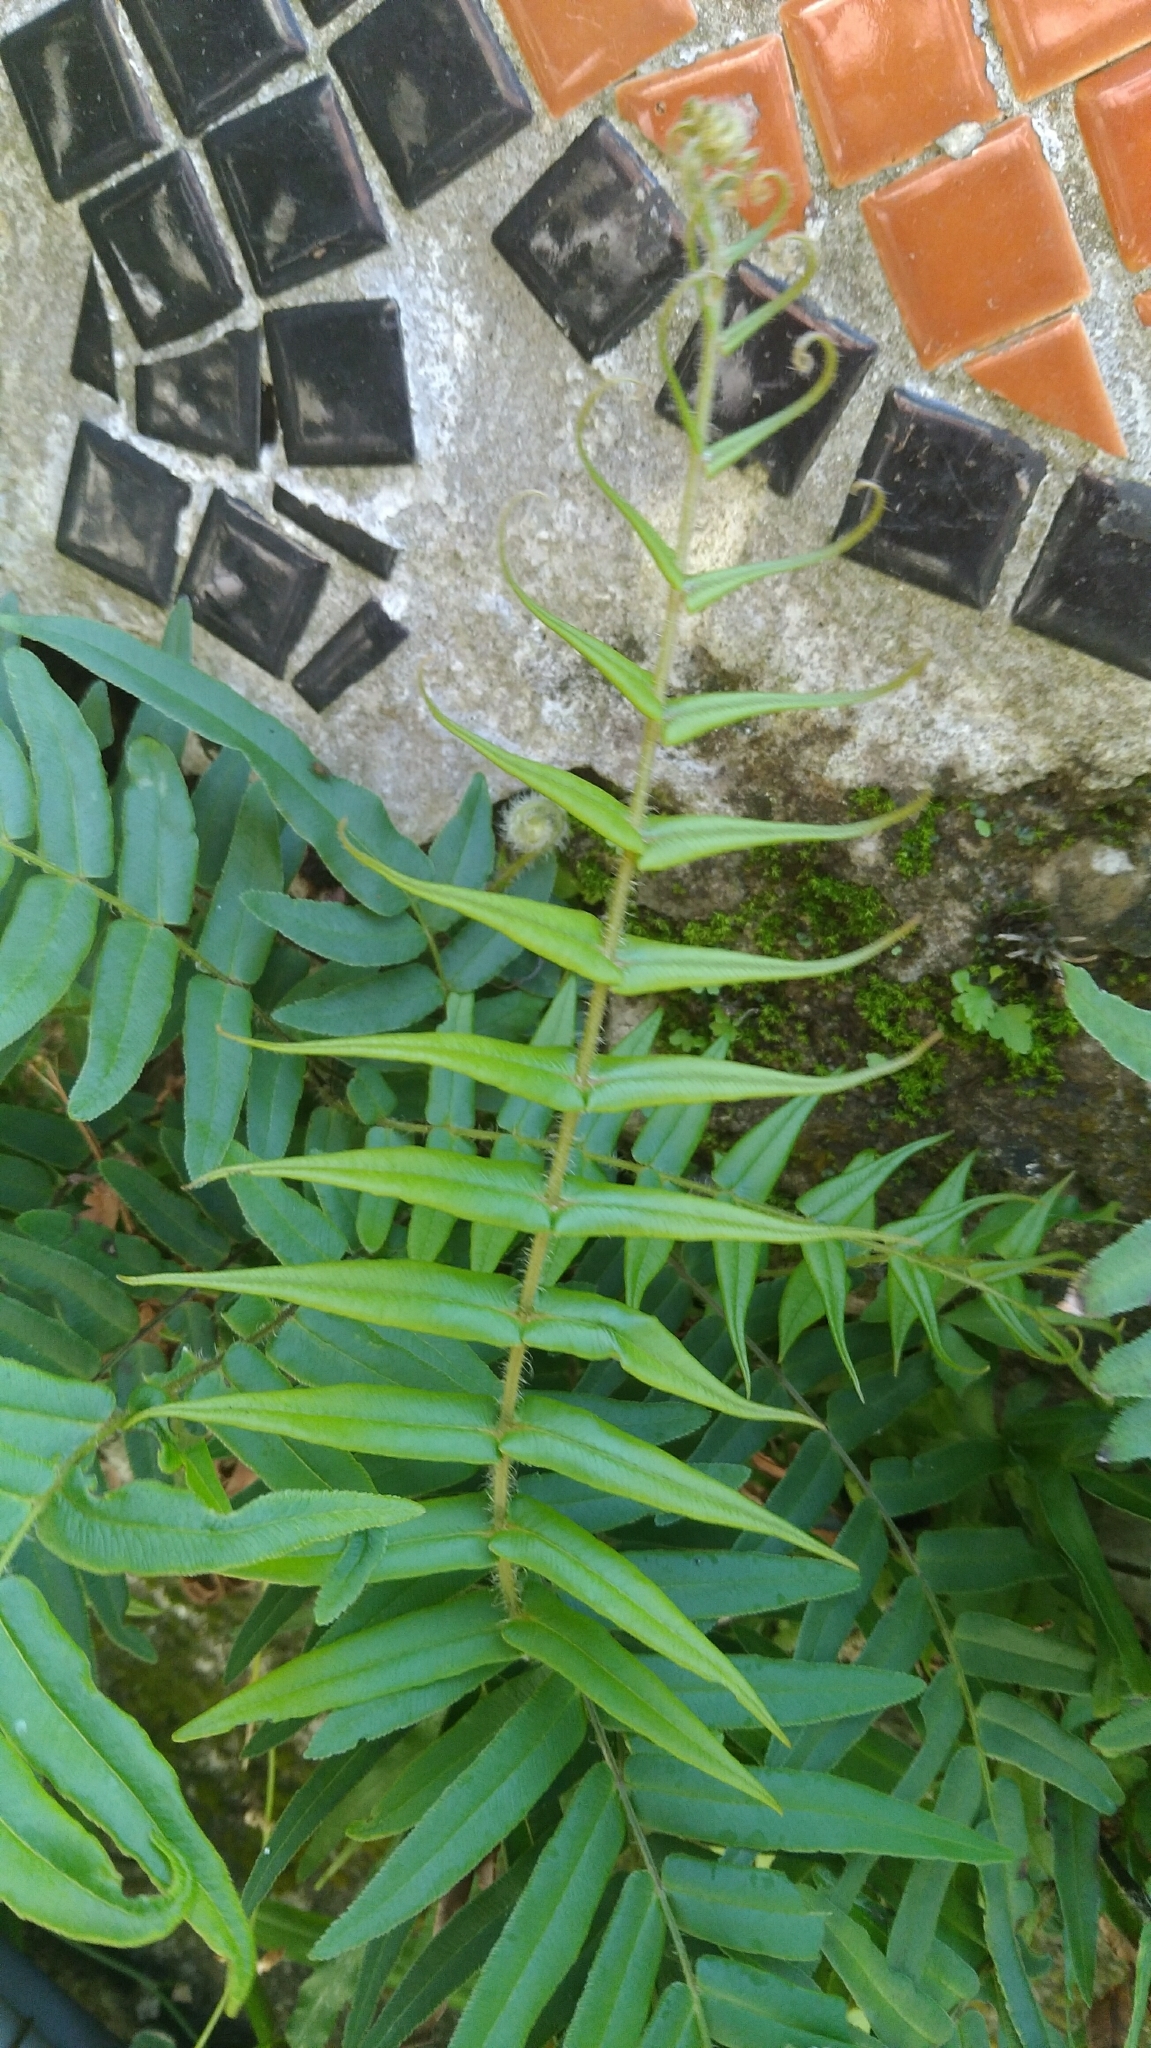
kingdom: Plantae
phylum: Tracheophyta
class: Polypodiopsida
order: Polypodiales
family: Pteridaceae
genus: Pteris
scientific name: Pteris vittata
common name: Ladder brake
